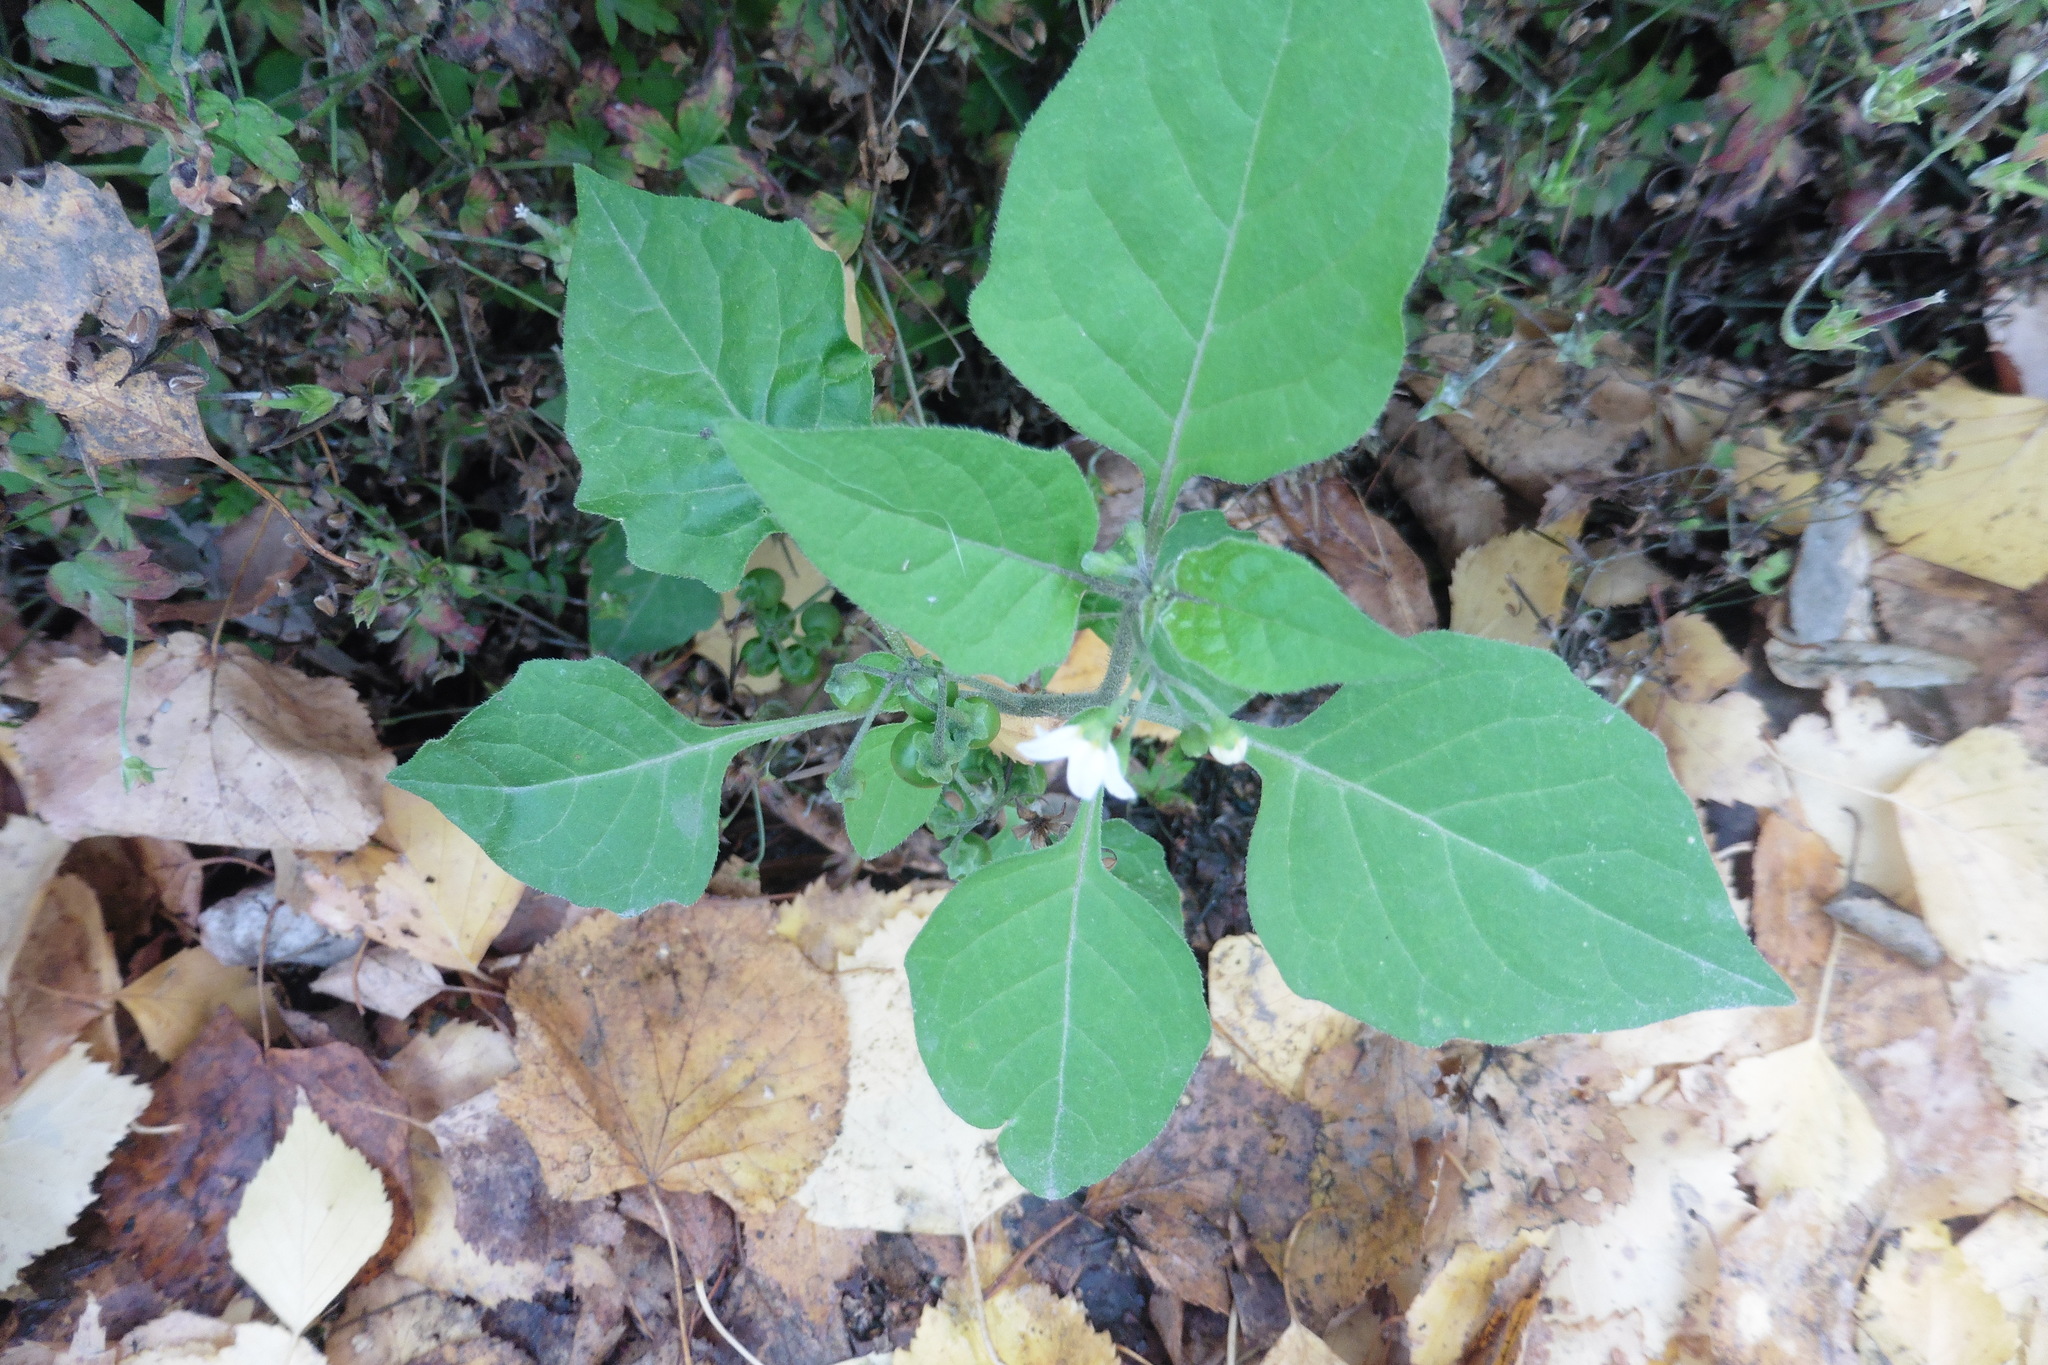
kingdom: Plantae
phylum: Tracheophyta
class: Magnoliopsida
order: Solanales
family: Solanaceae
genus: Solanum
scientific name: Solanum nigrum
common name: Black nightshade
